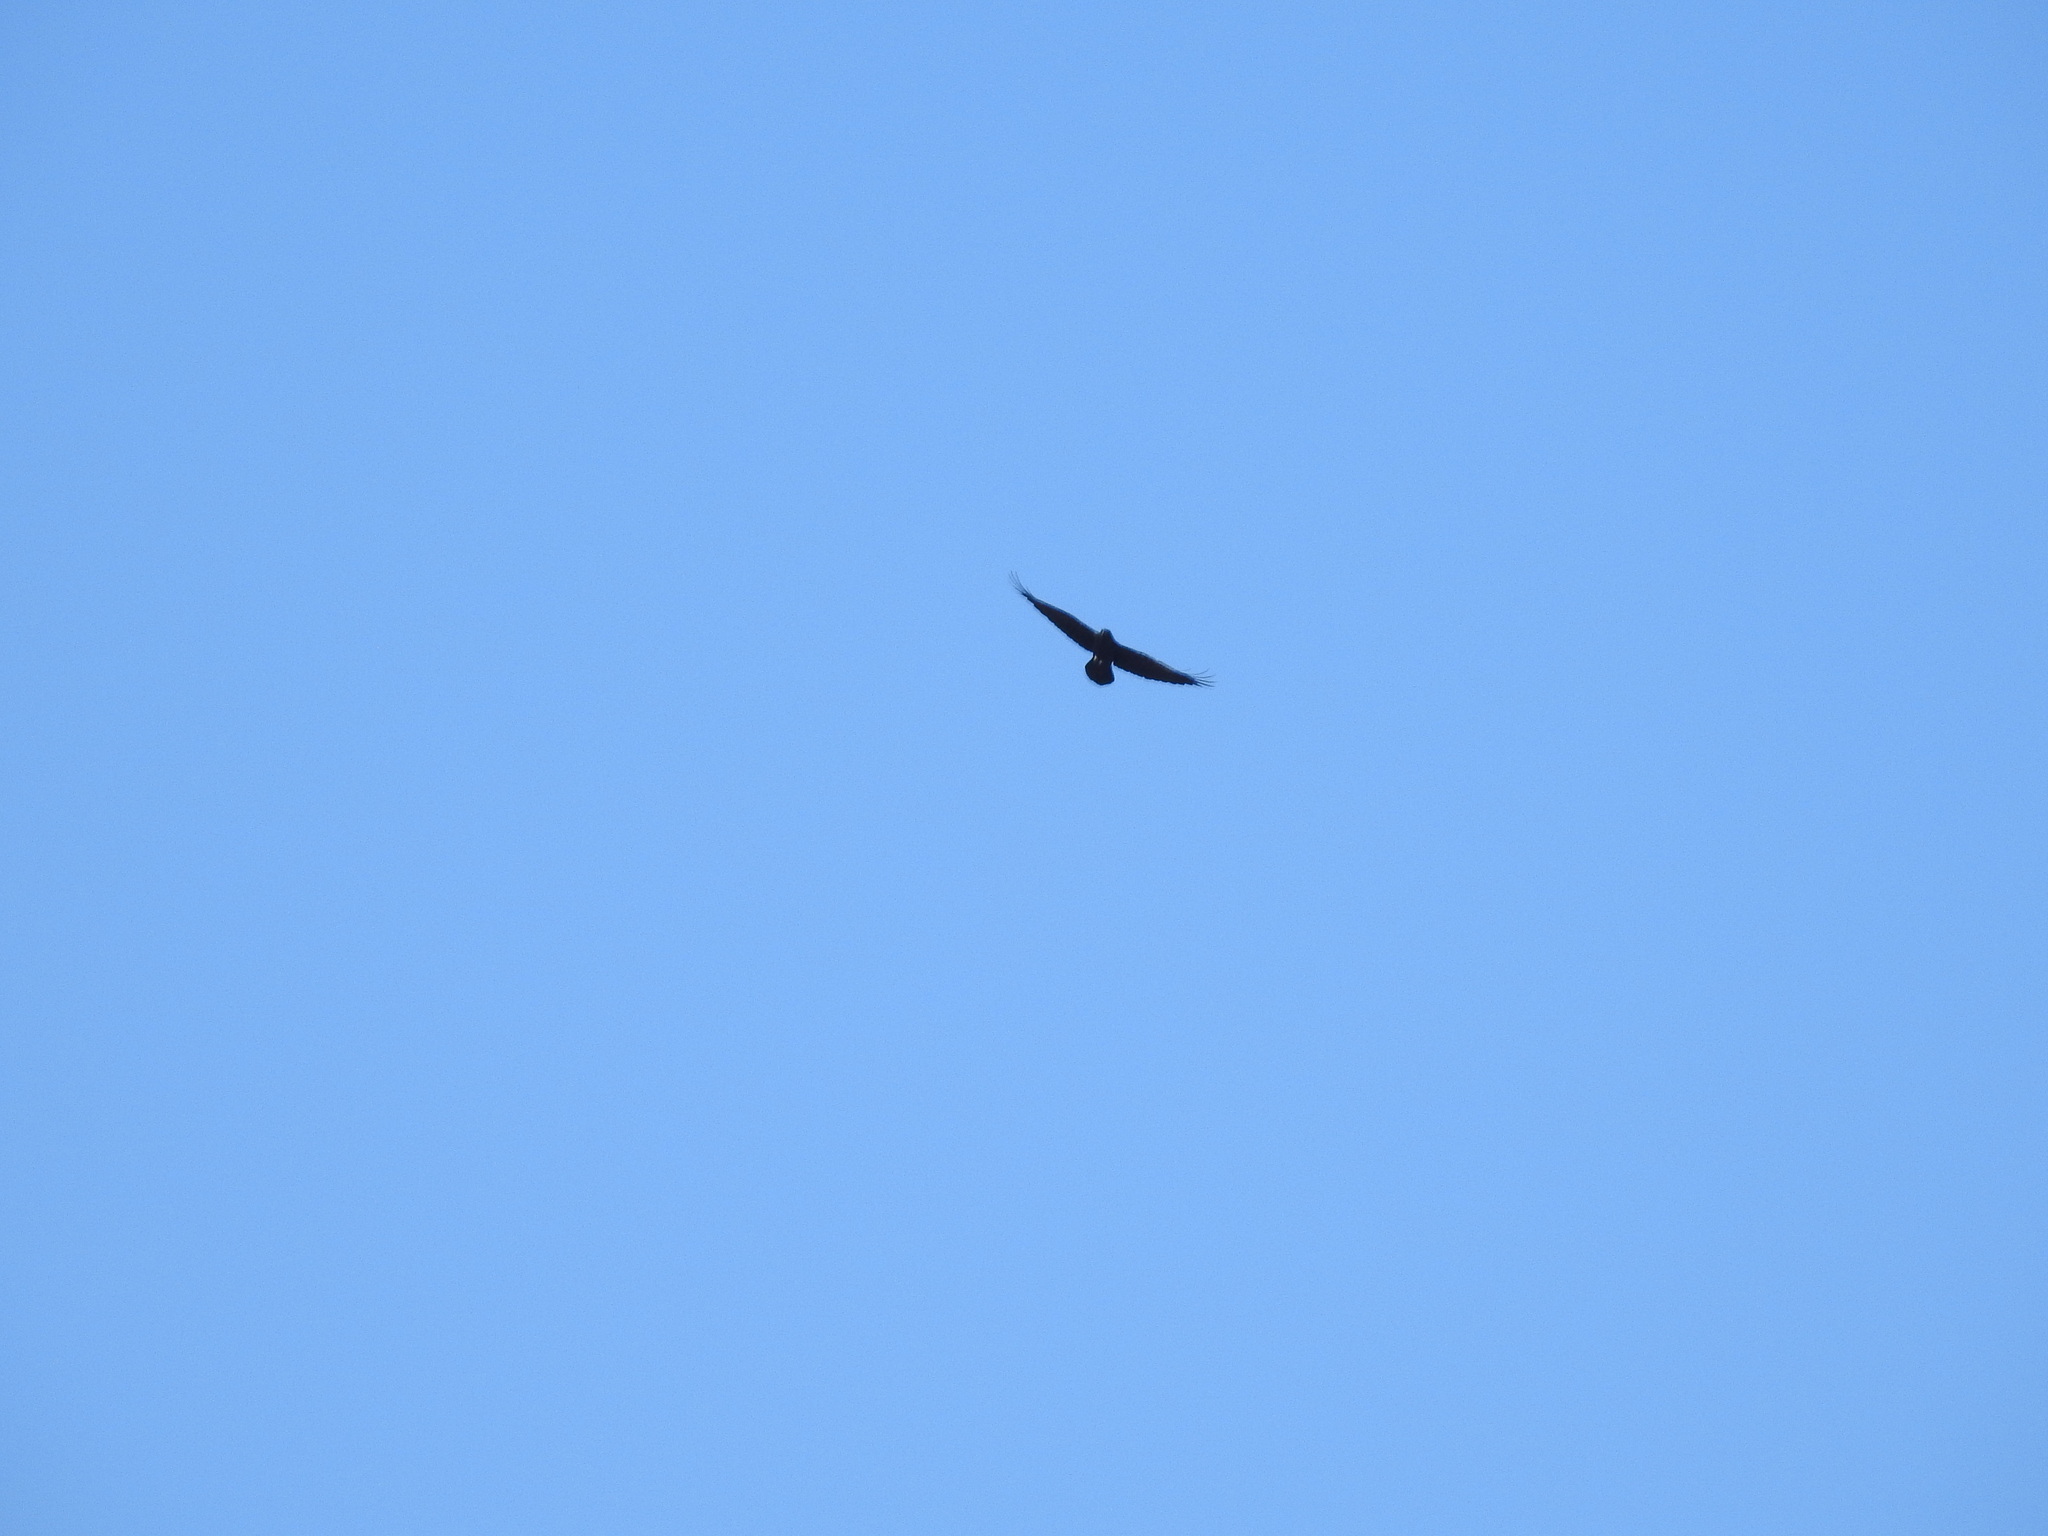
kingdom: Animalia
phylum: Chordata
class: Aves
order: Passeriformes
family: Corvidae
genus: Corvus
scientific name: Corvus corax
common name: Common raven
